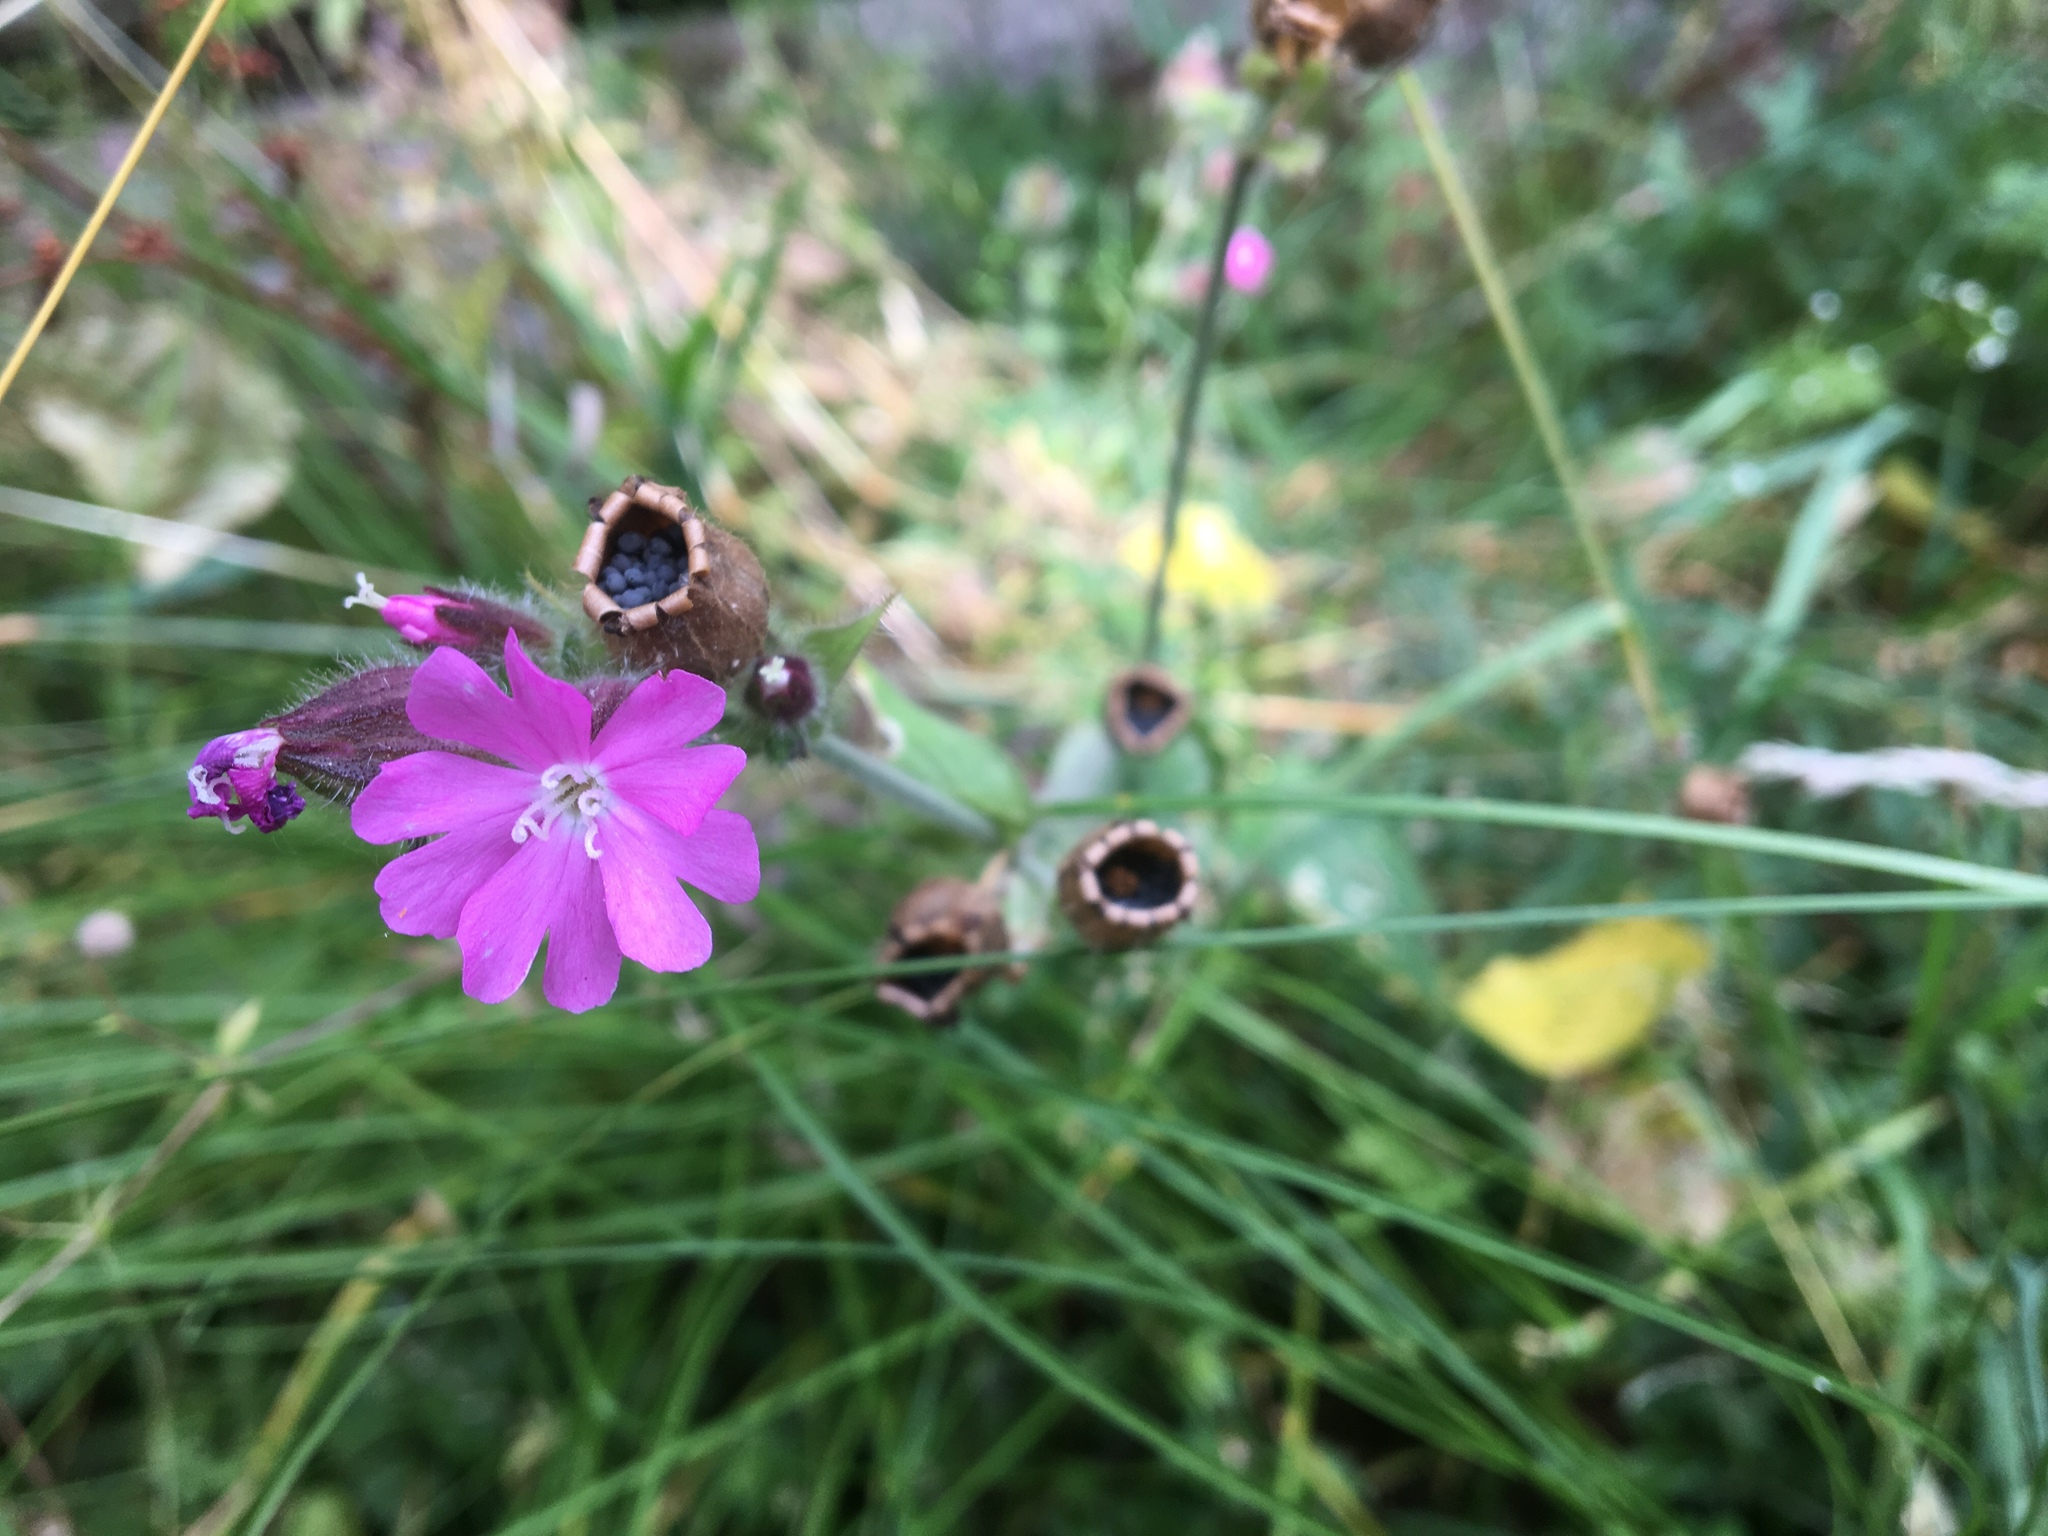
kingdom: Plantae
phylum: Tracheophyta
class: Magnoliopsida
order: Caryophyllales
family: Caryophyllaceae
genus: Silene
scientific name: Silene dioica
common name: Red campion
